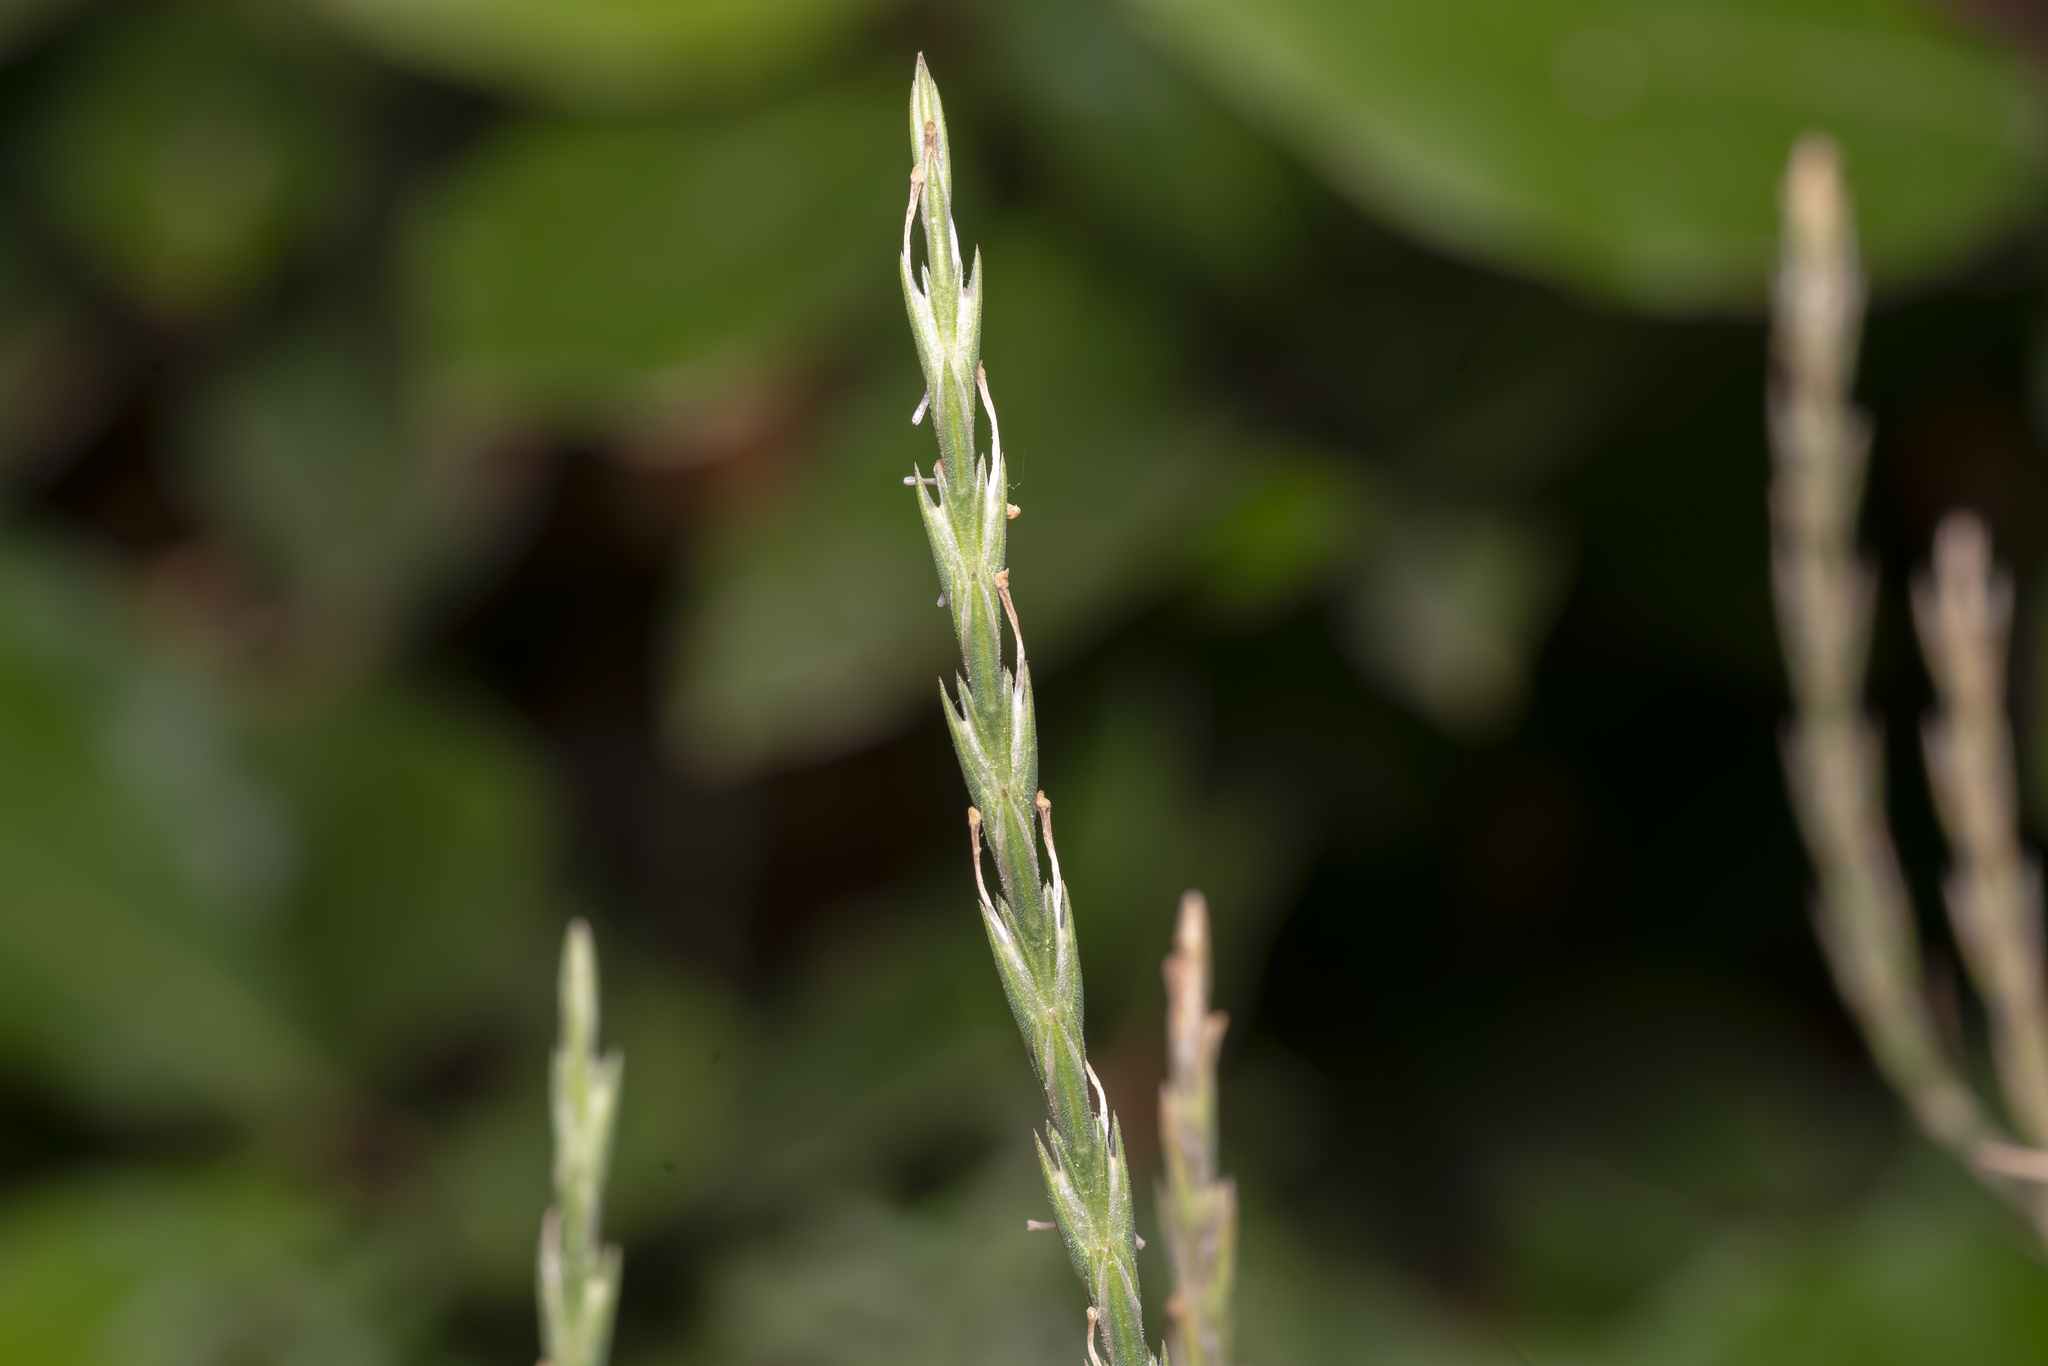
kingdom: Plantae
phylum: Tracheophyta
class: Magnoliopsida
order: Gentianales
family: Rubiaceae
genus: Crucianella
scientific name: Crucianella macrostachya
